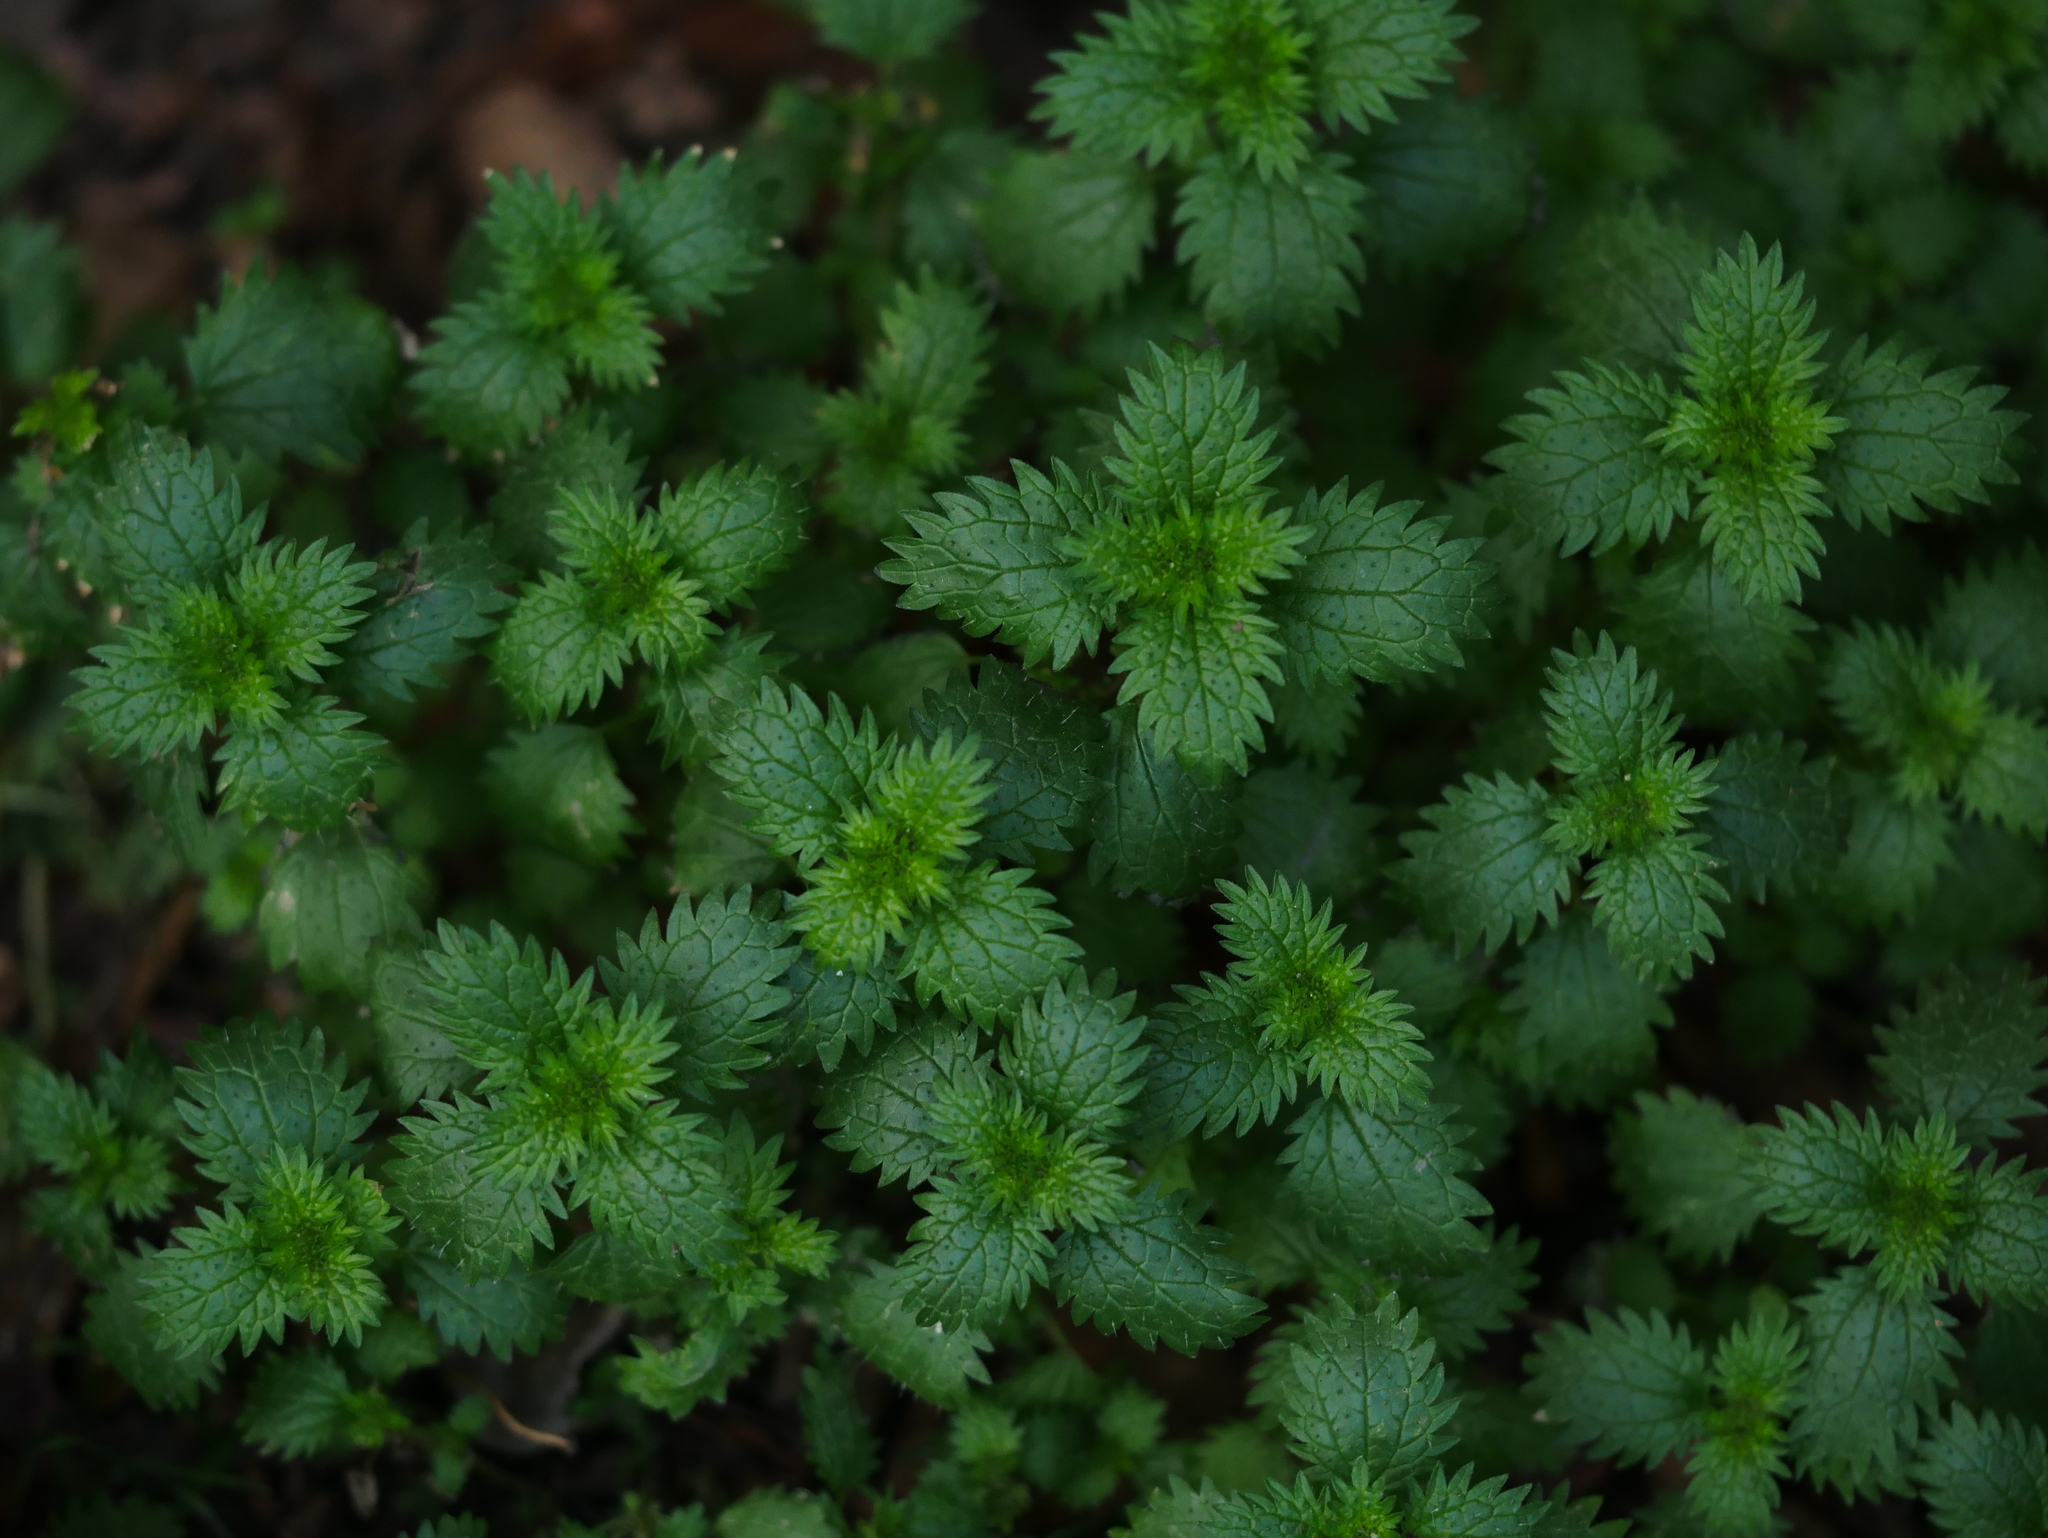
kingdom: Plantae
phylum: Tracheophyta
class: Magnoliopsida
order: Rosales
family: Urticaceae
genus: Urtica
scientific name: Urtica urens
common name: Dwarf nettle
